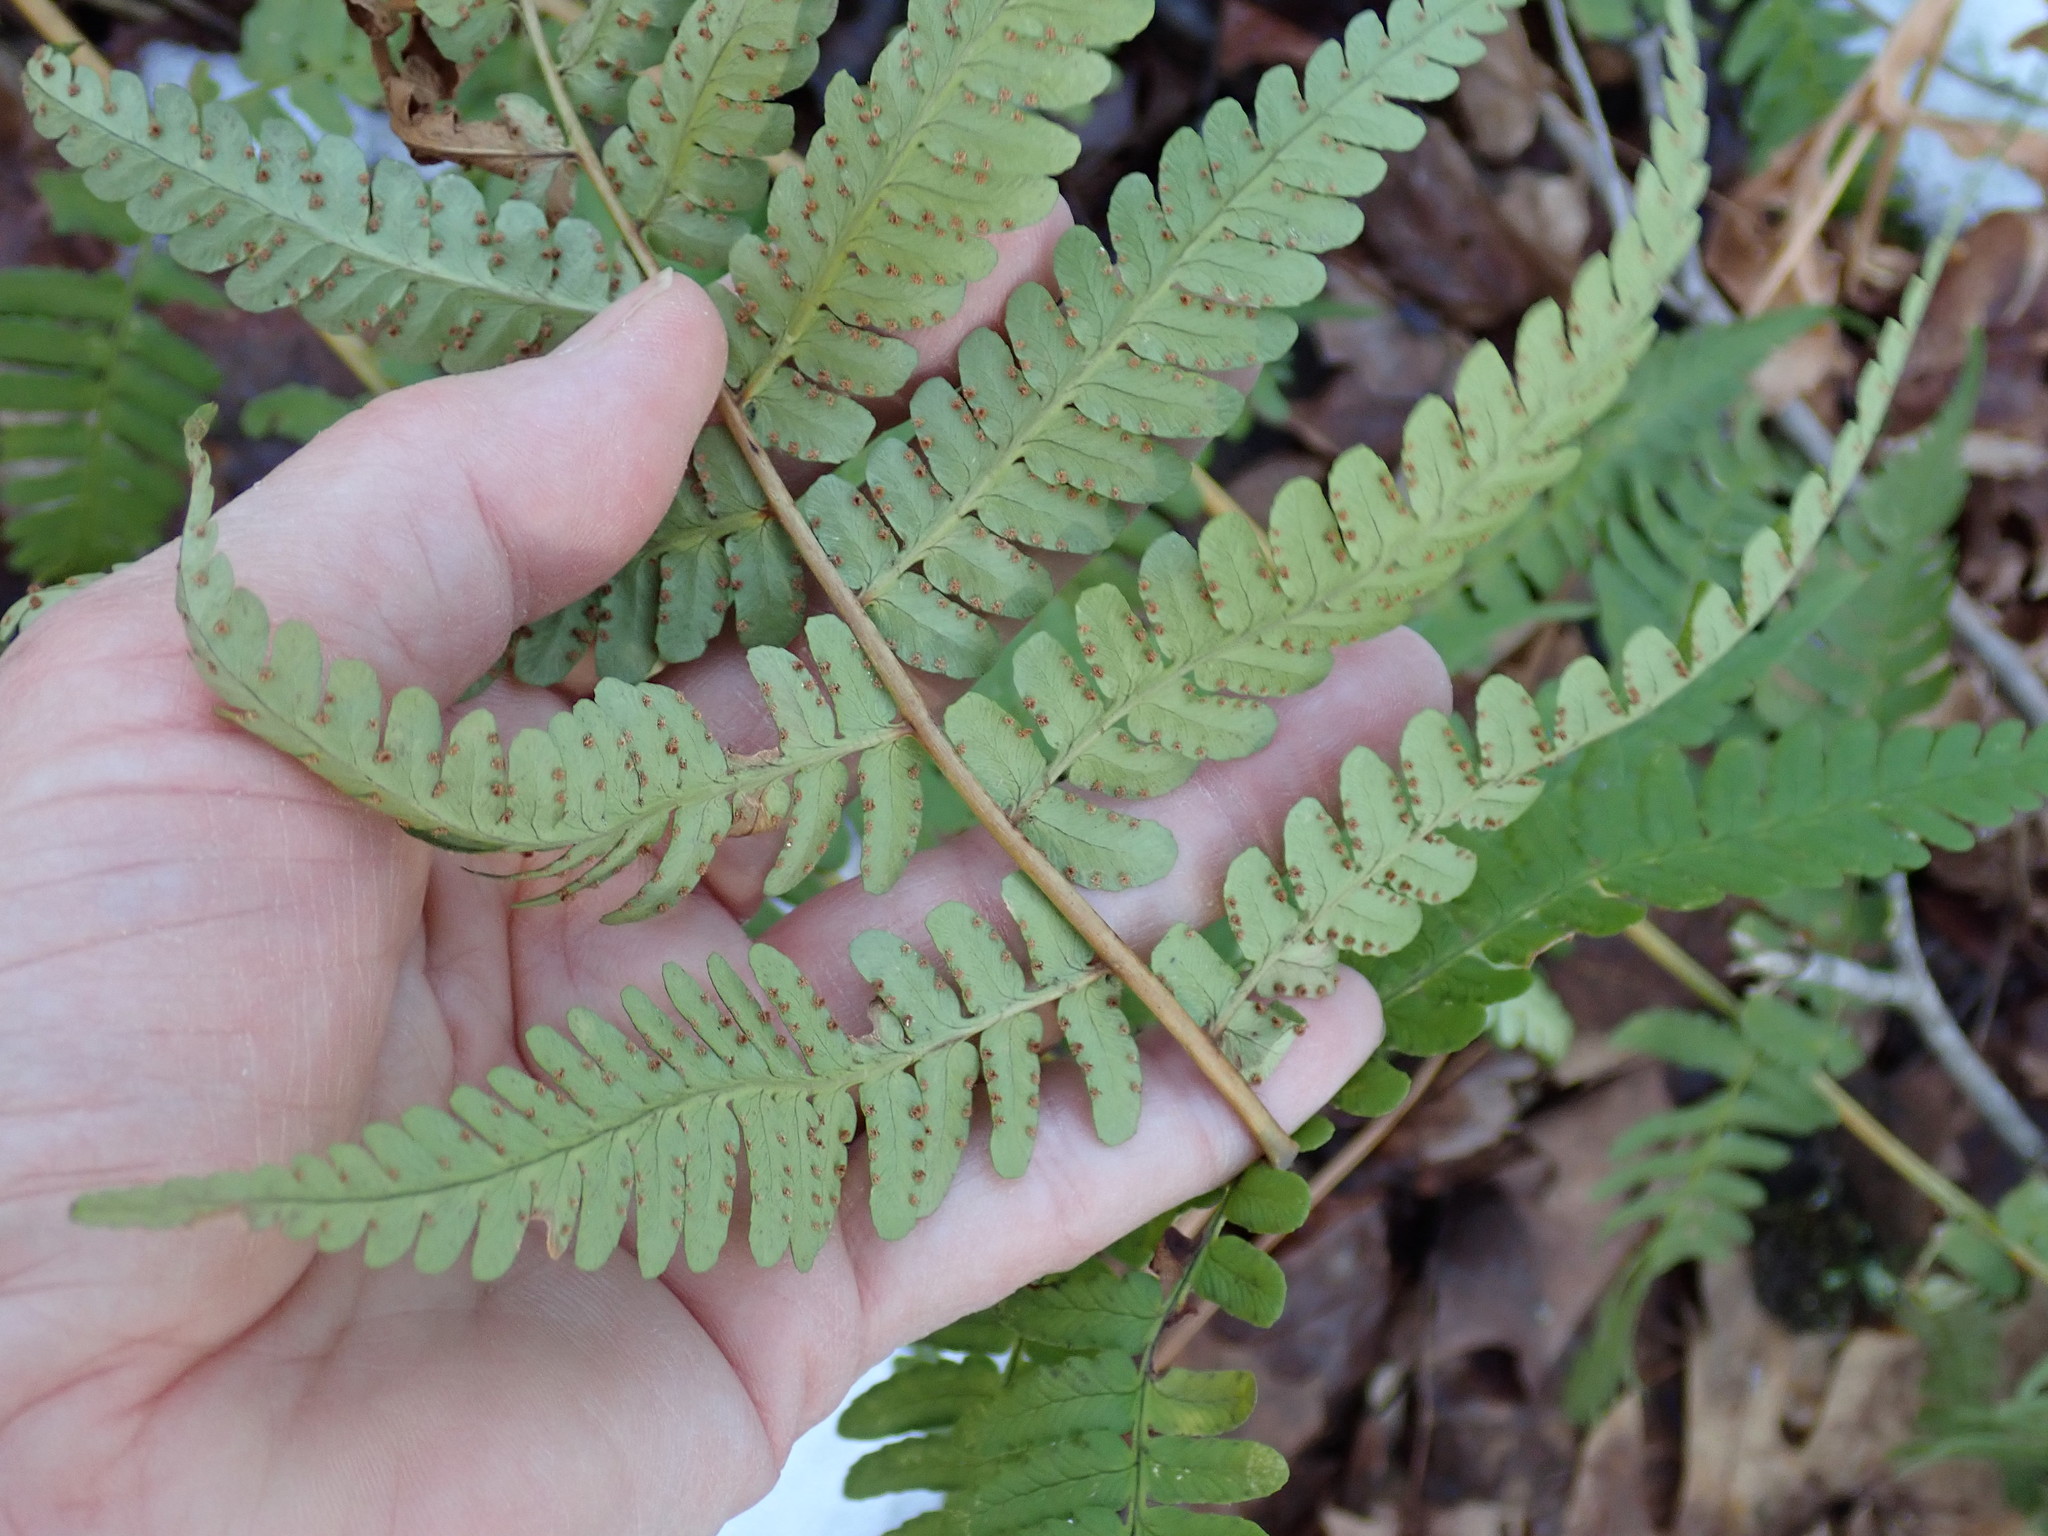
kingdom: Plantae
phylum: Tracheophyta
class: Polypodiopsida
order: Polypodiales
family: Dryopteridaceae
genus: Dryopteris
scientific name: Dryopteris marginalis
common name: Marginal wood fern
